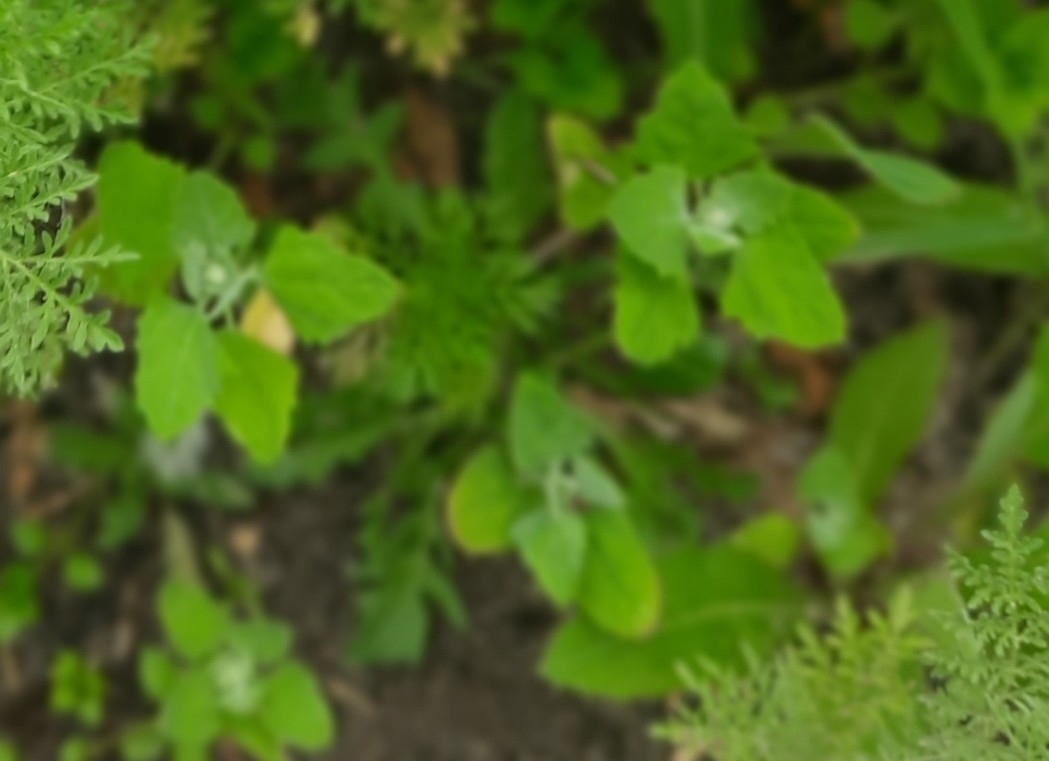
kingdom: Plantae
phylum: Tracheophyta
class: Magnoliopsida
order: Caryophyllales
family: Amaranthaceae
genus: Chenopodium
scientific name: Chenopodium album
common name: Fat-hen
